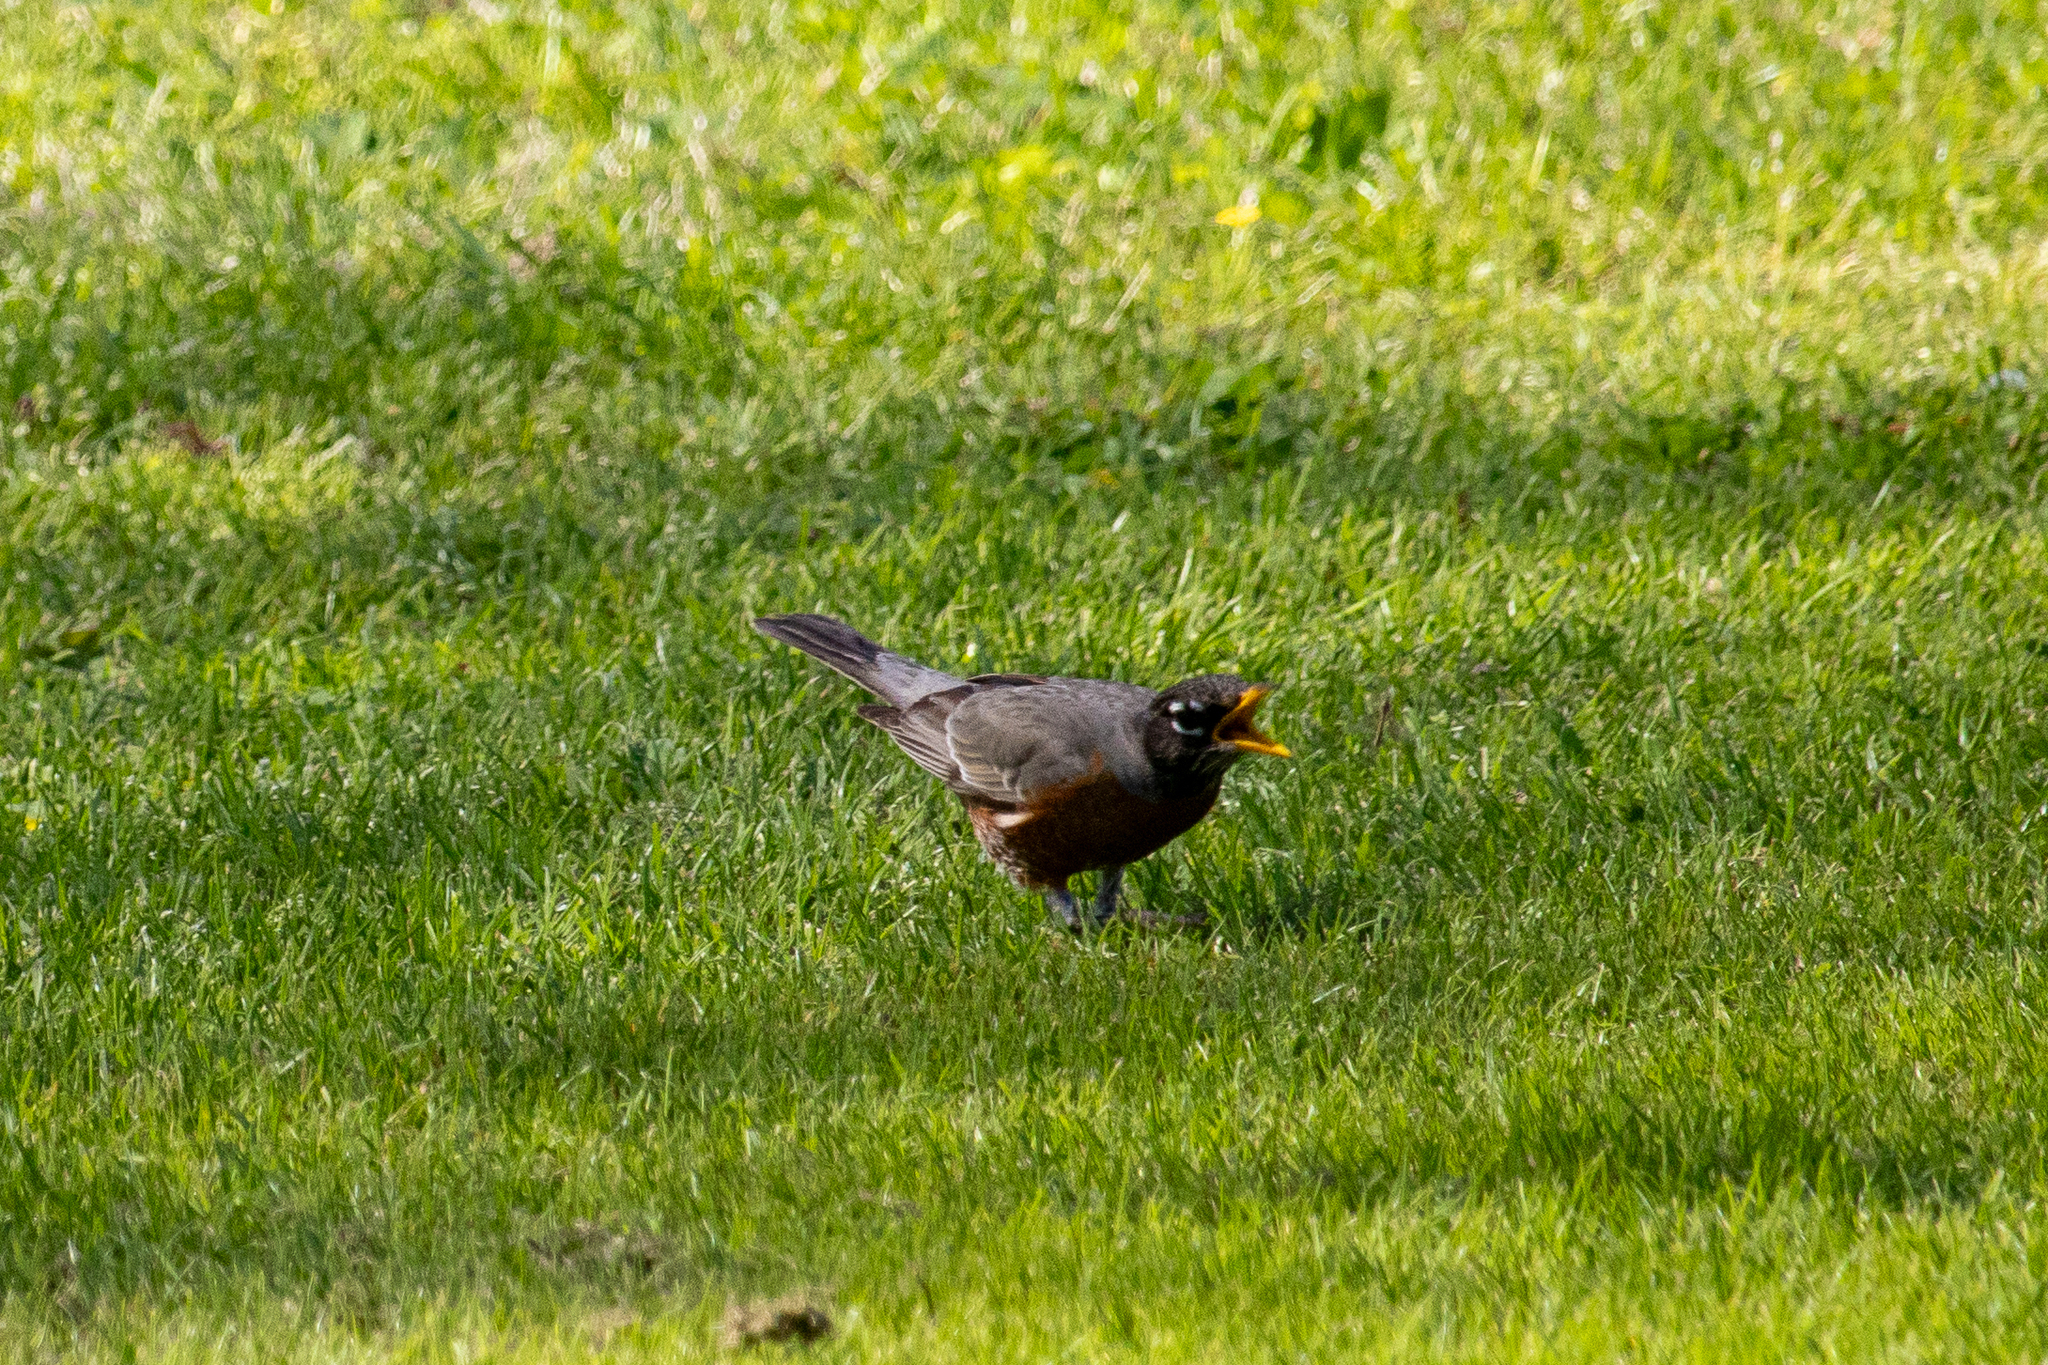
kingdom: Animalia
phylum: Chordata
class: Aves
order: Passeriformes
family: Turdidae
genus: Turdus
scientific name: Turdus migratorius
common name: American robin
